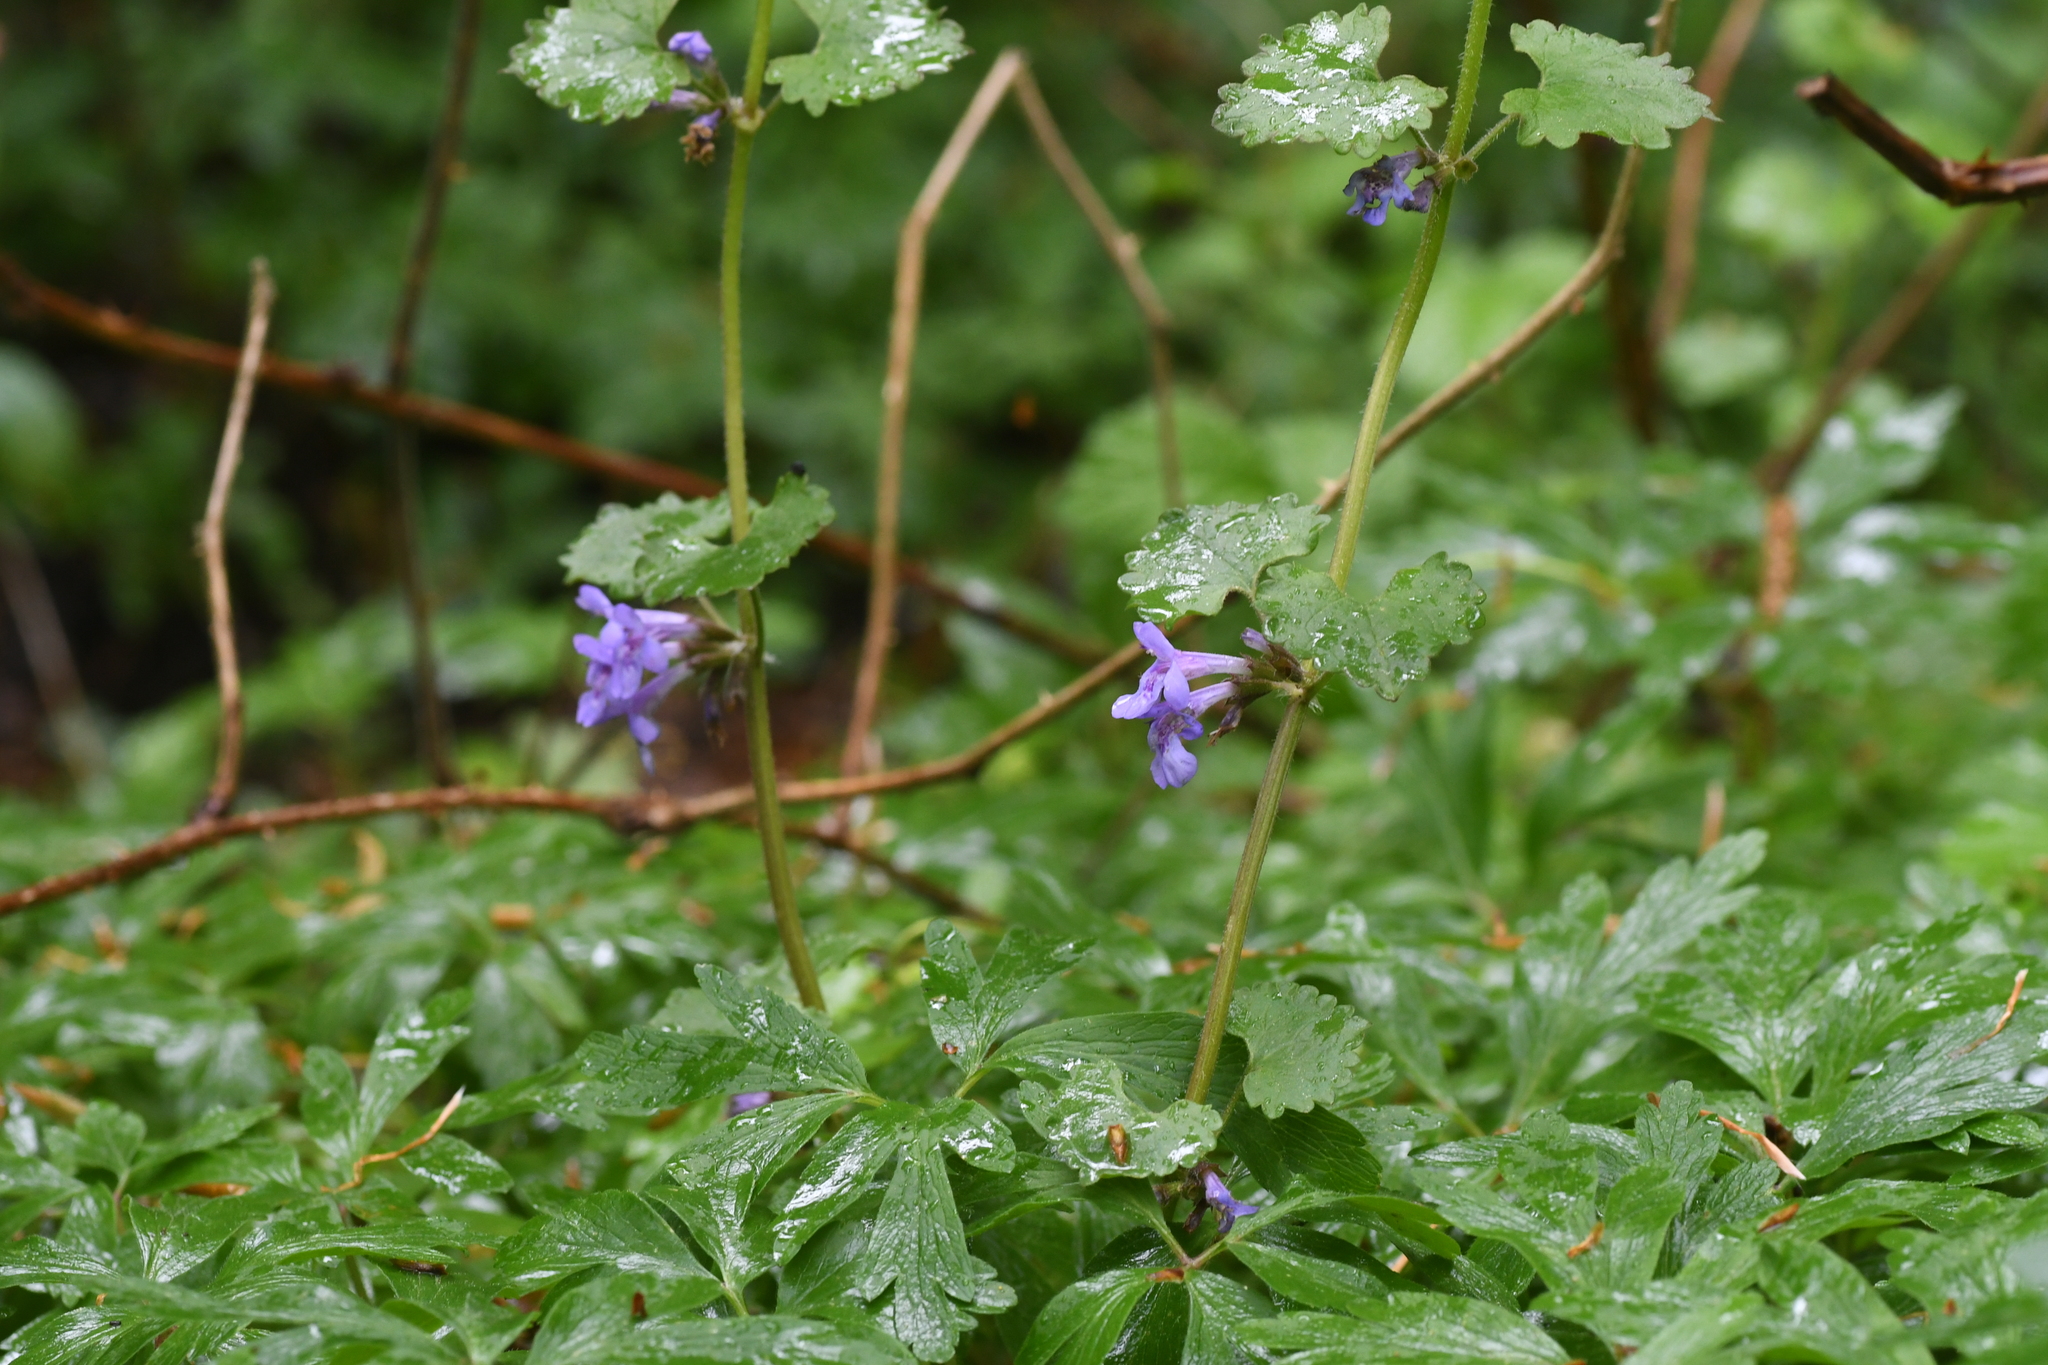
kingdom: Plantae
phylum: Tracheophyta
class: Magnoliopsida
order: Lamiales
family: Lamiaceae
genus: Glechoma
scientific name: Glechoma hederacea
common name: Ground ivy
